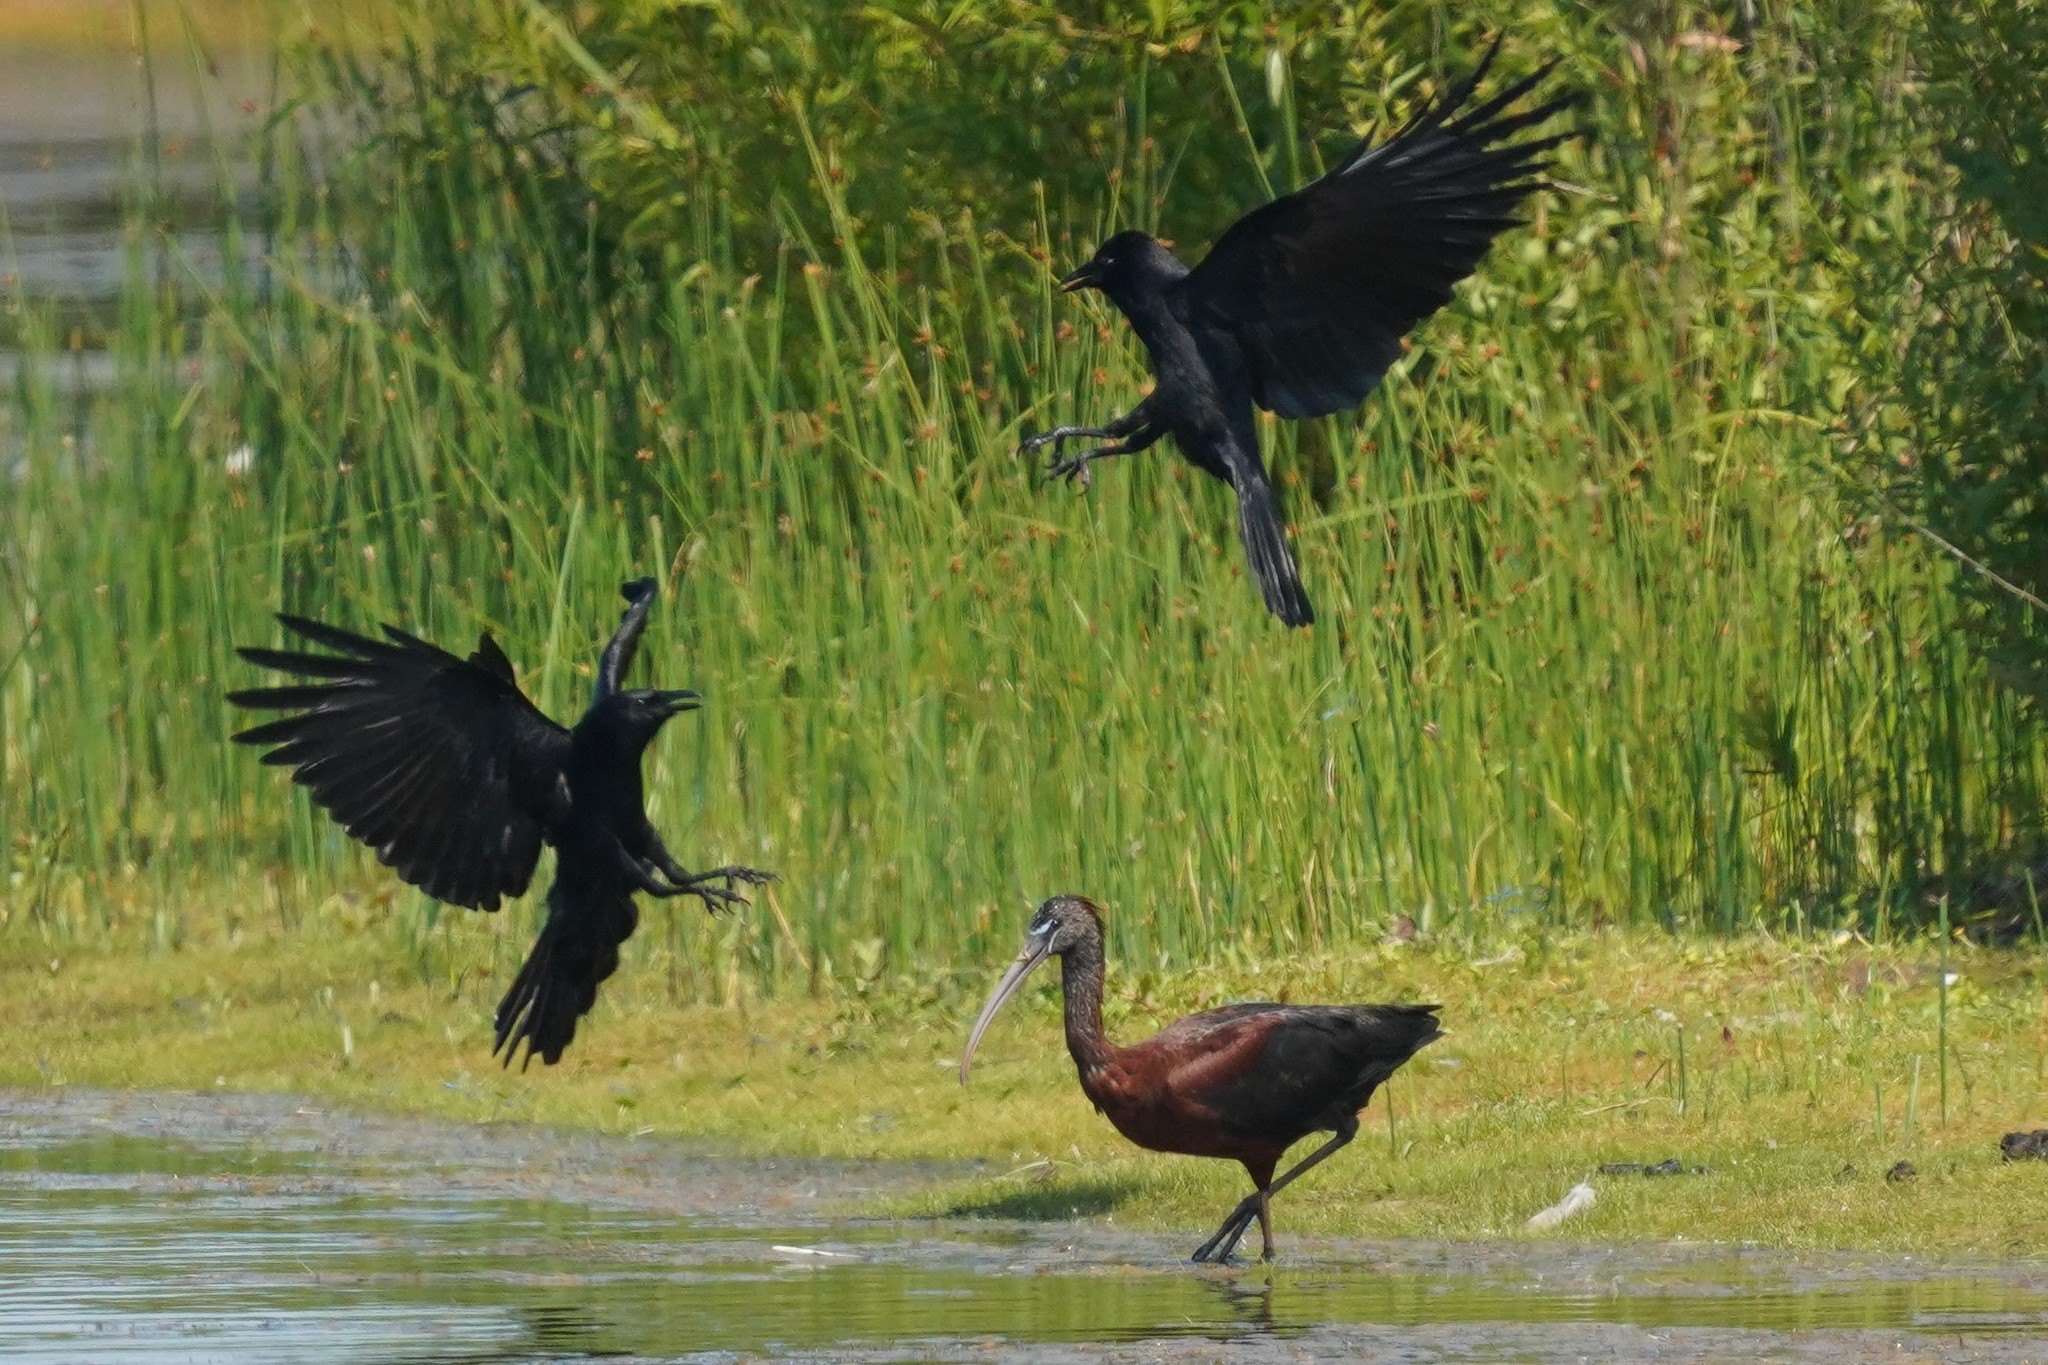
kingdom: Animalia
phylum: Chordata
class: Aves
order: Pelecaniformes
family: Threskiornithidae
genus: Plegadis
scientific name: Plegadis falcinellus
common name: Glossy ibis
